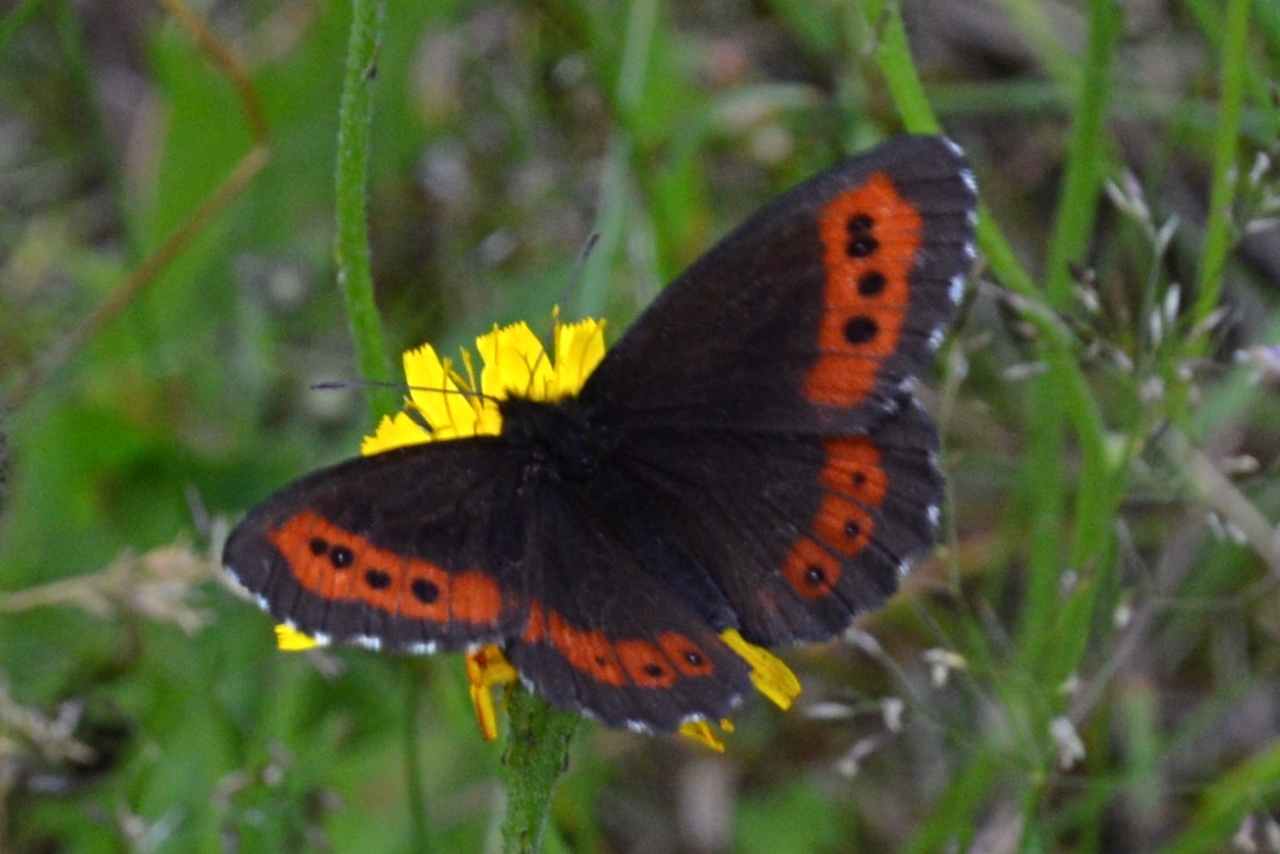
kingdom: Animalia
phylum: Arthropoda
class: Insecta
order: Lepidoptera
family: Nymphalidae
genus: Erebia
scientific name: Erebia ligea
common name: Arran brown
